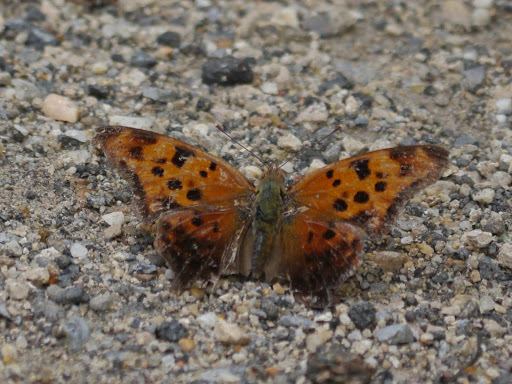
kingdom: Animalia
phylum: Arthropoda
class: Insecta
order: Lepidoptera
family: Nymphalidae
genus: Polygonia
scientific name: Polygonia interrogationis
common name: Question mark
